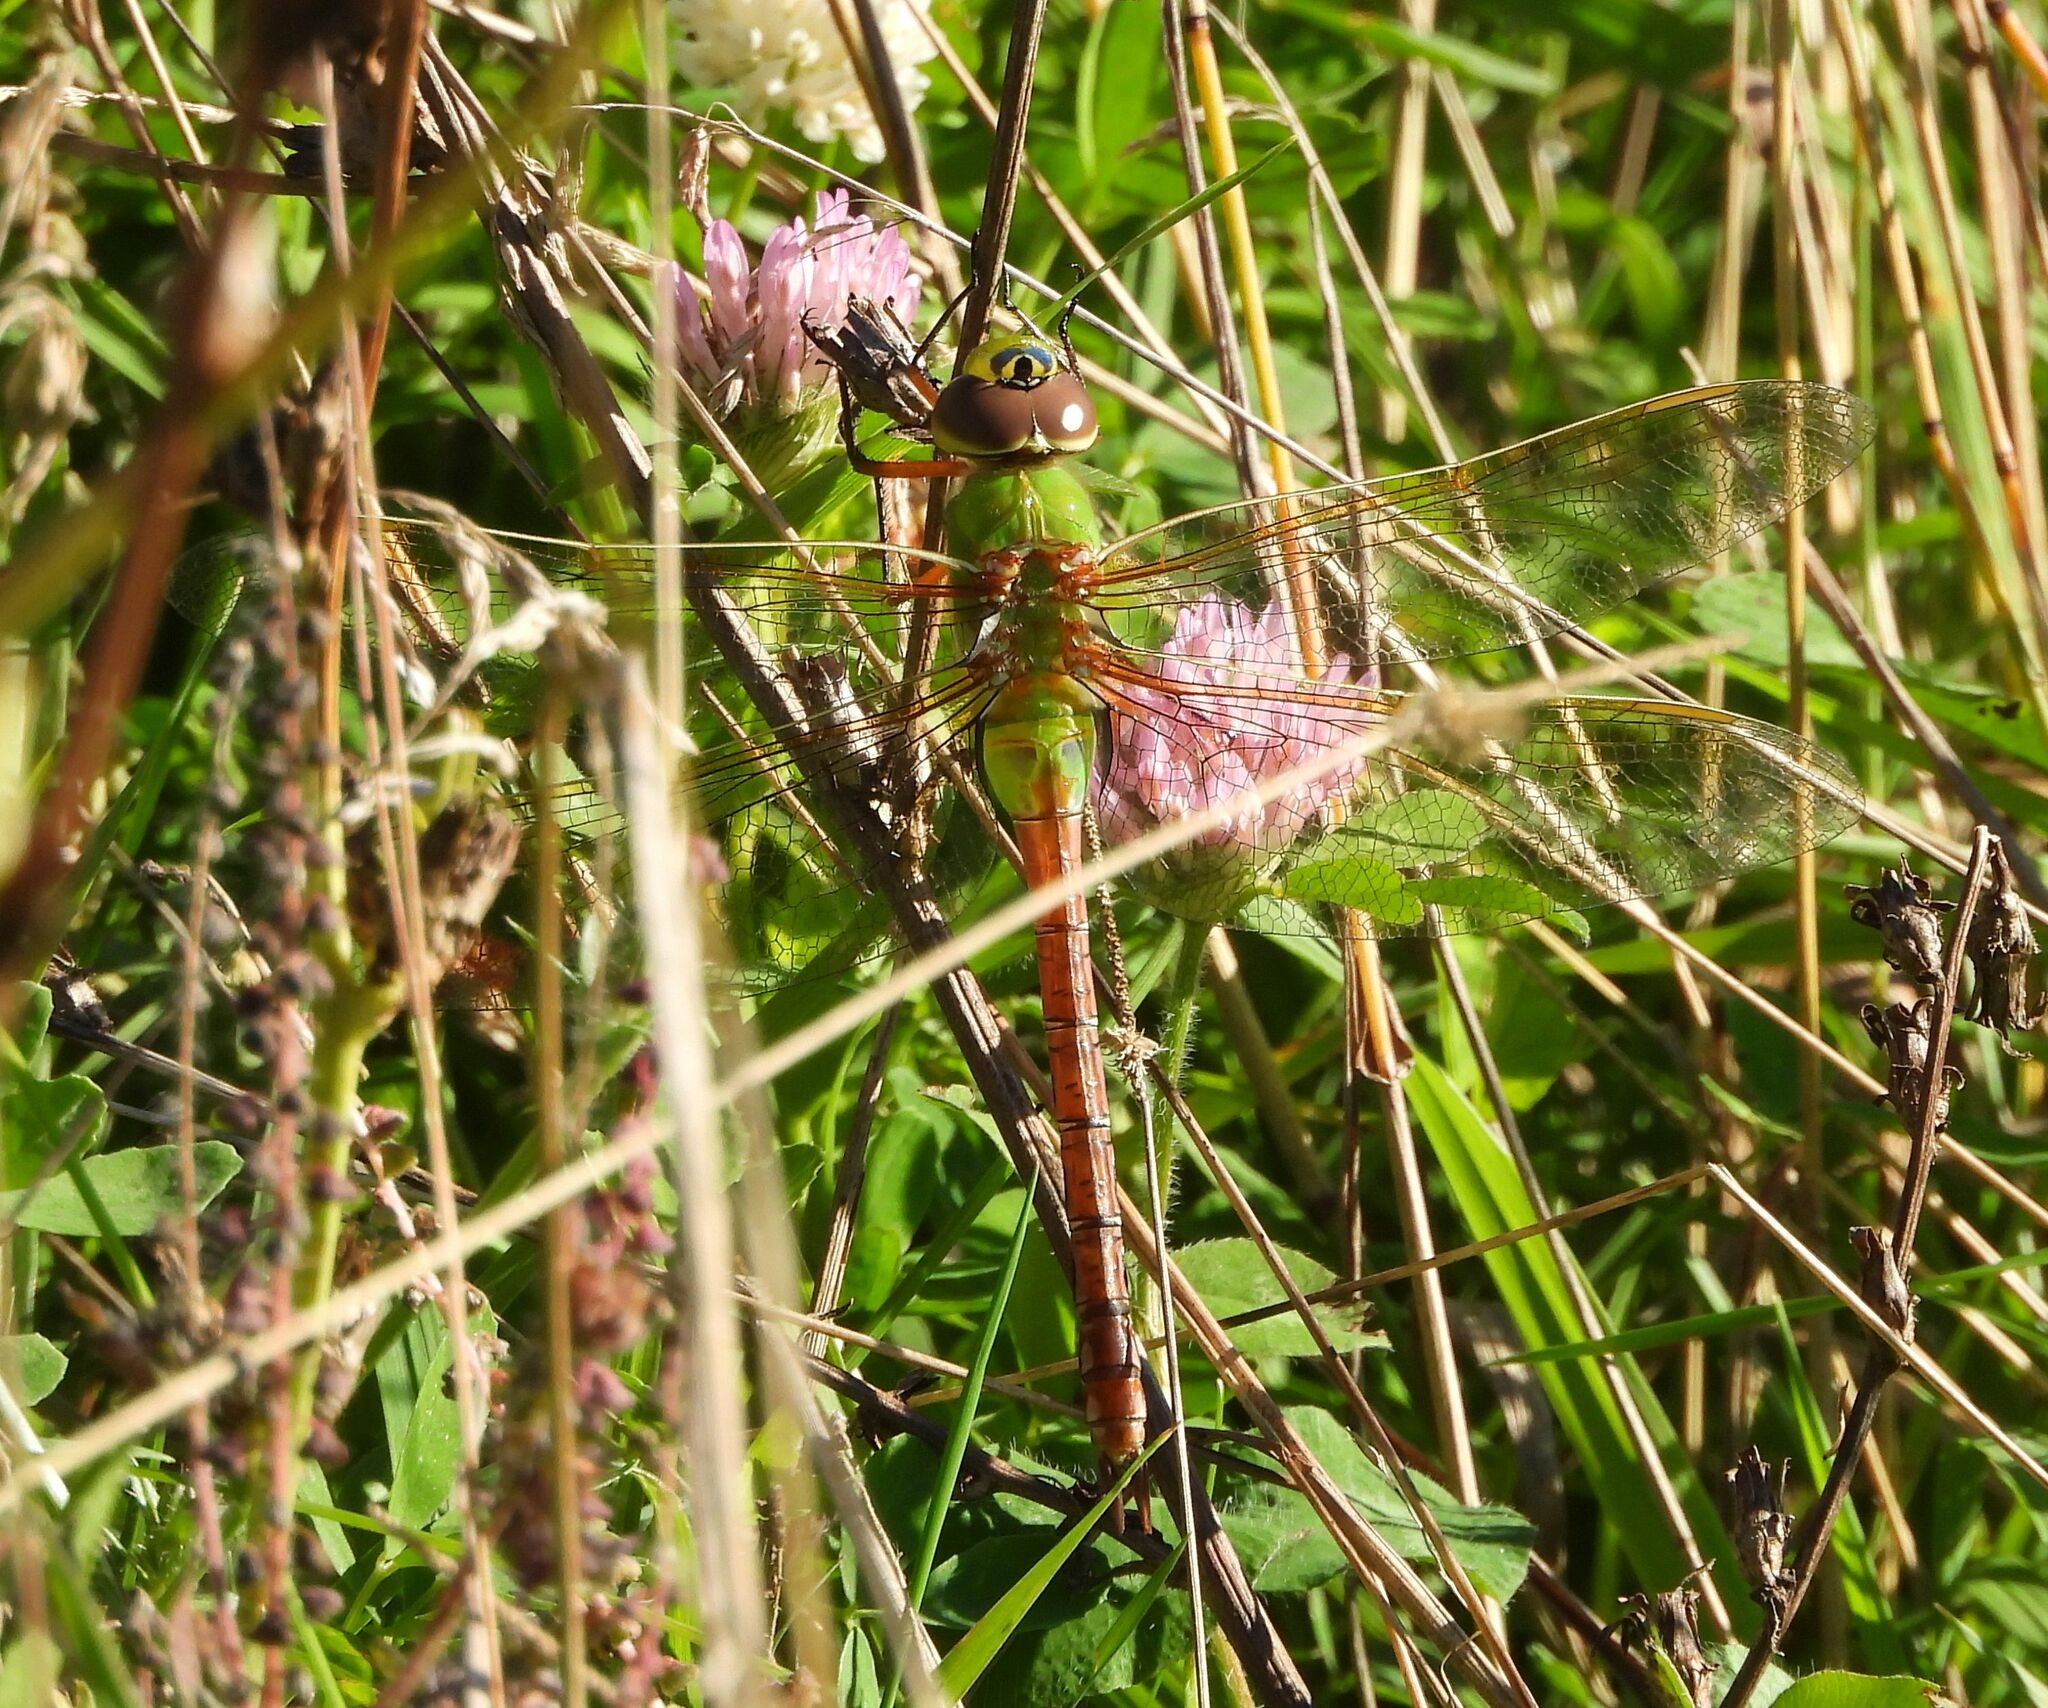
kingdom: Animalia
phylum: Arthropoda
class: Insecta
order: Odonata
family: Aeshnidae
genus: Anax
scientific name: Anax junius
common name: Common green darner
